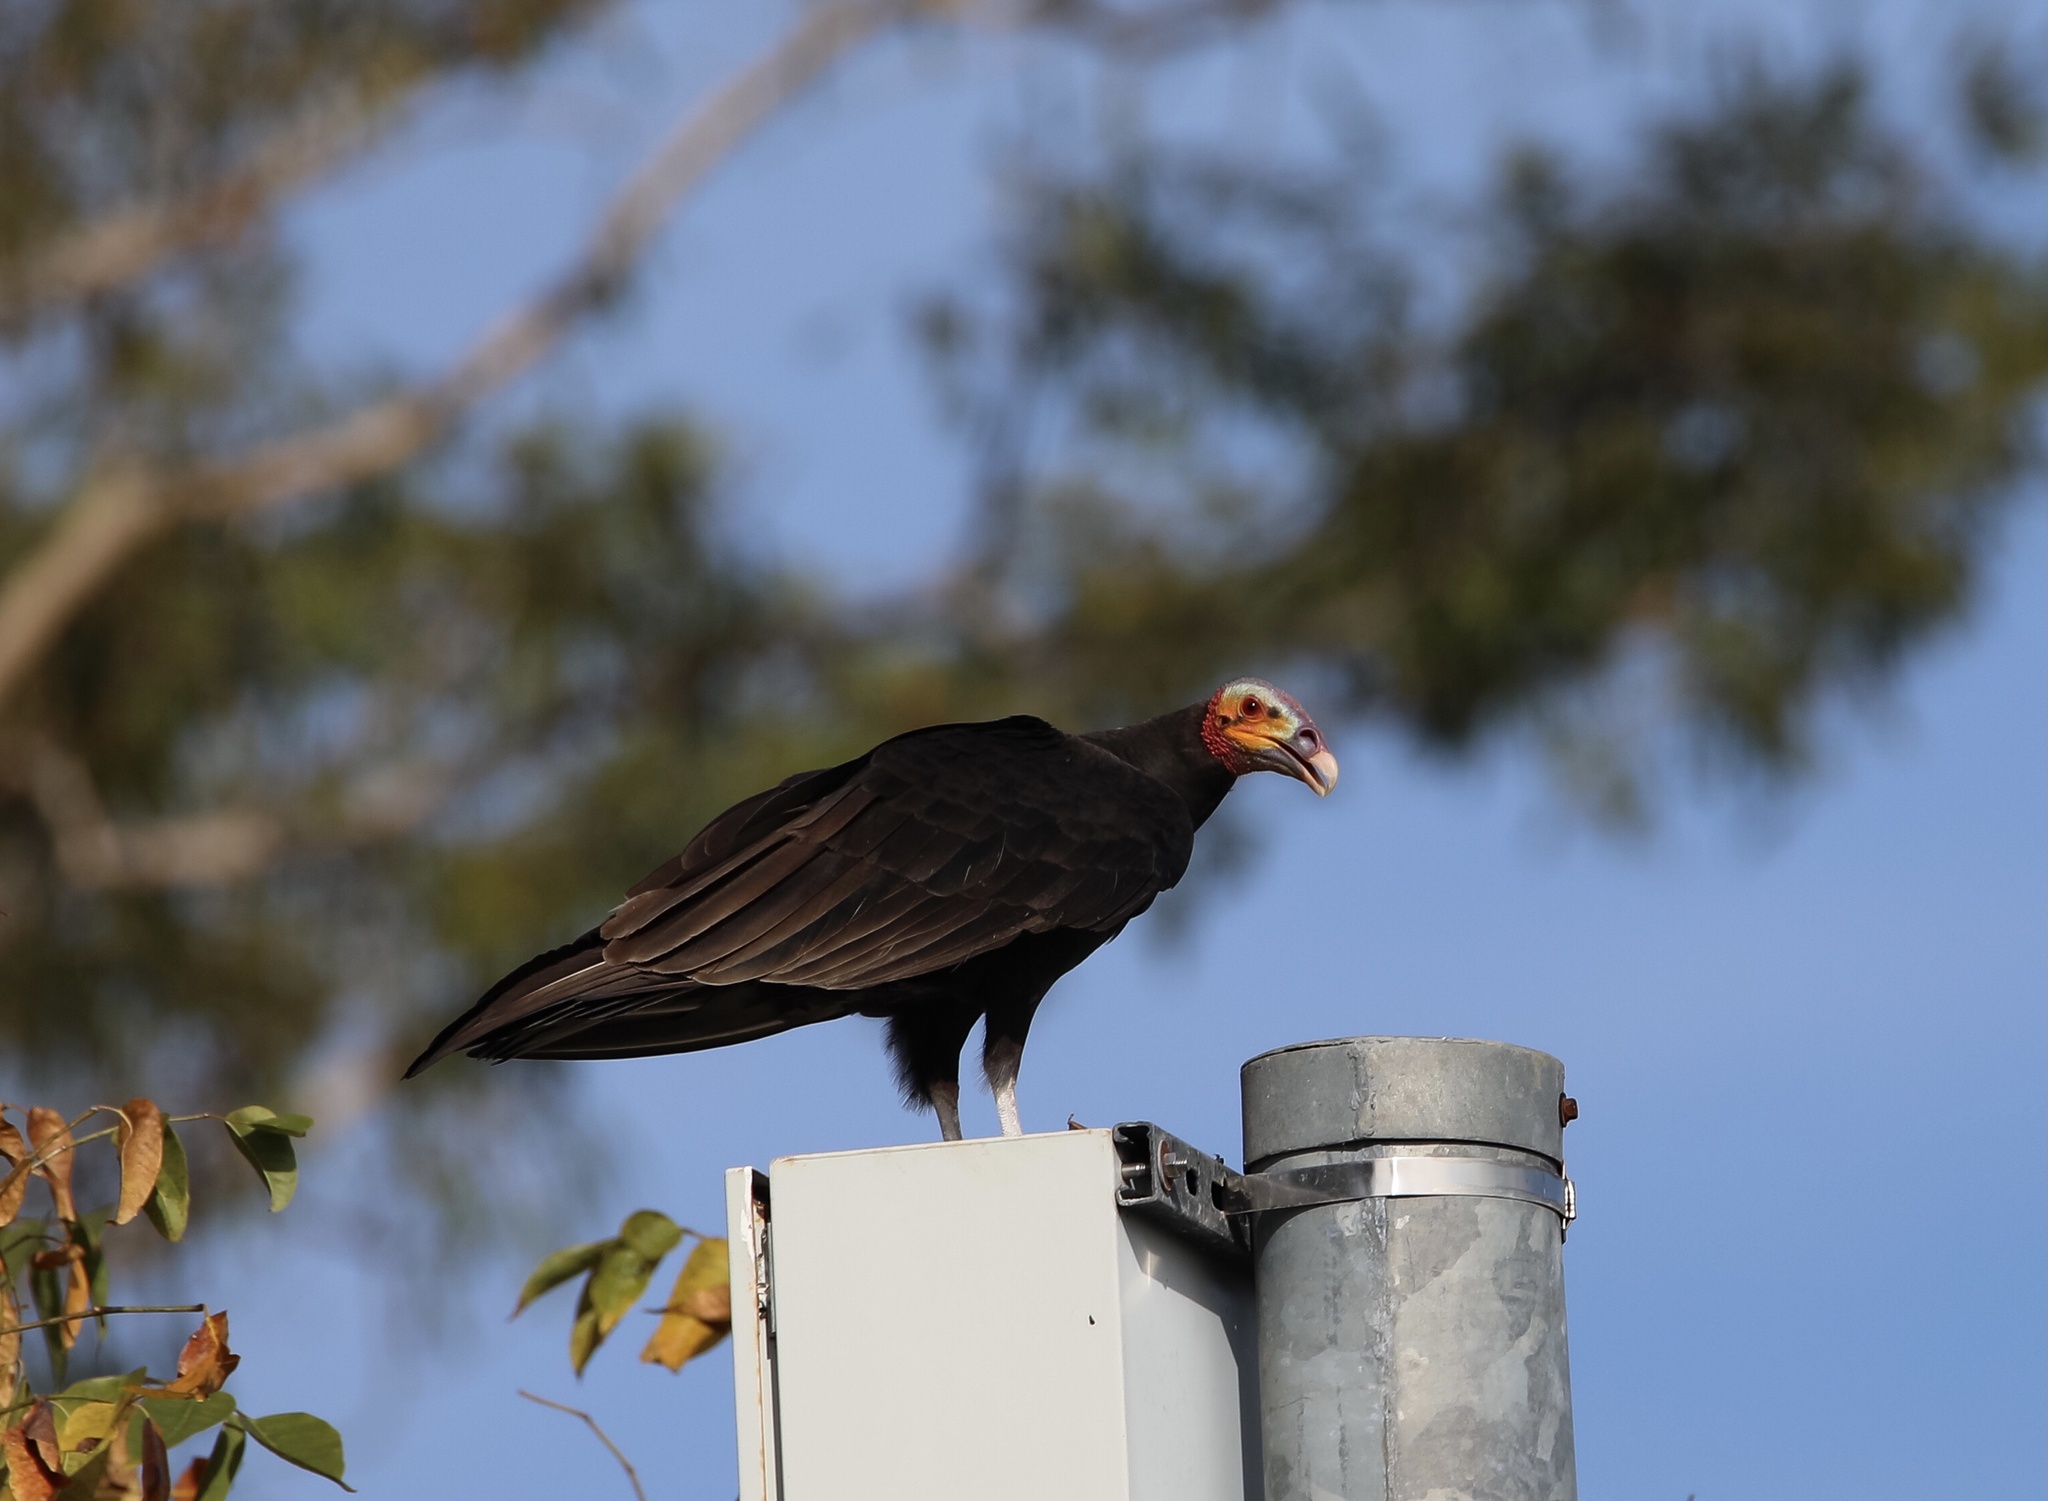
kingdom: Animalia
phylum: Chordata
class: Aves
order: Accipitriformes
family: Cathartidae
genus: Cathartes
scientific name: Cathartes burrovianus
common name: Lesser yellow-headed vulture
